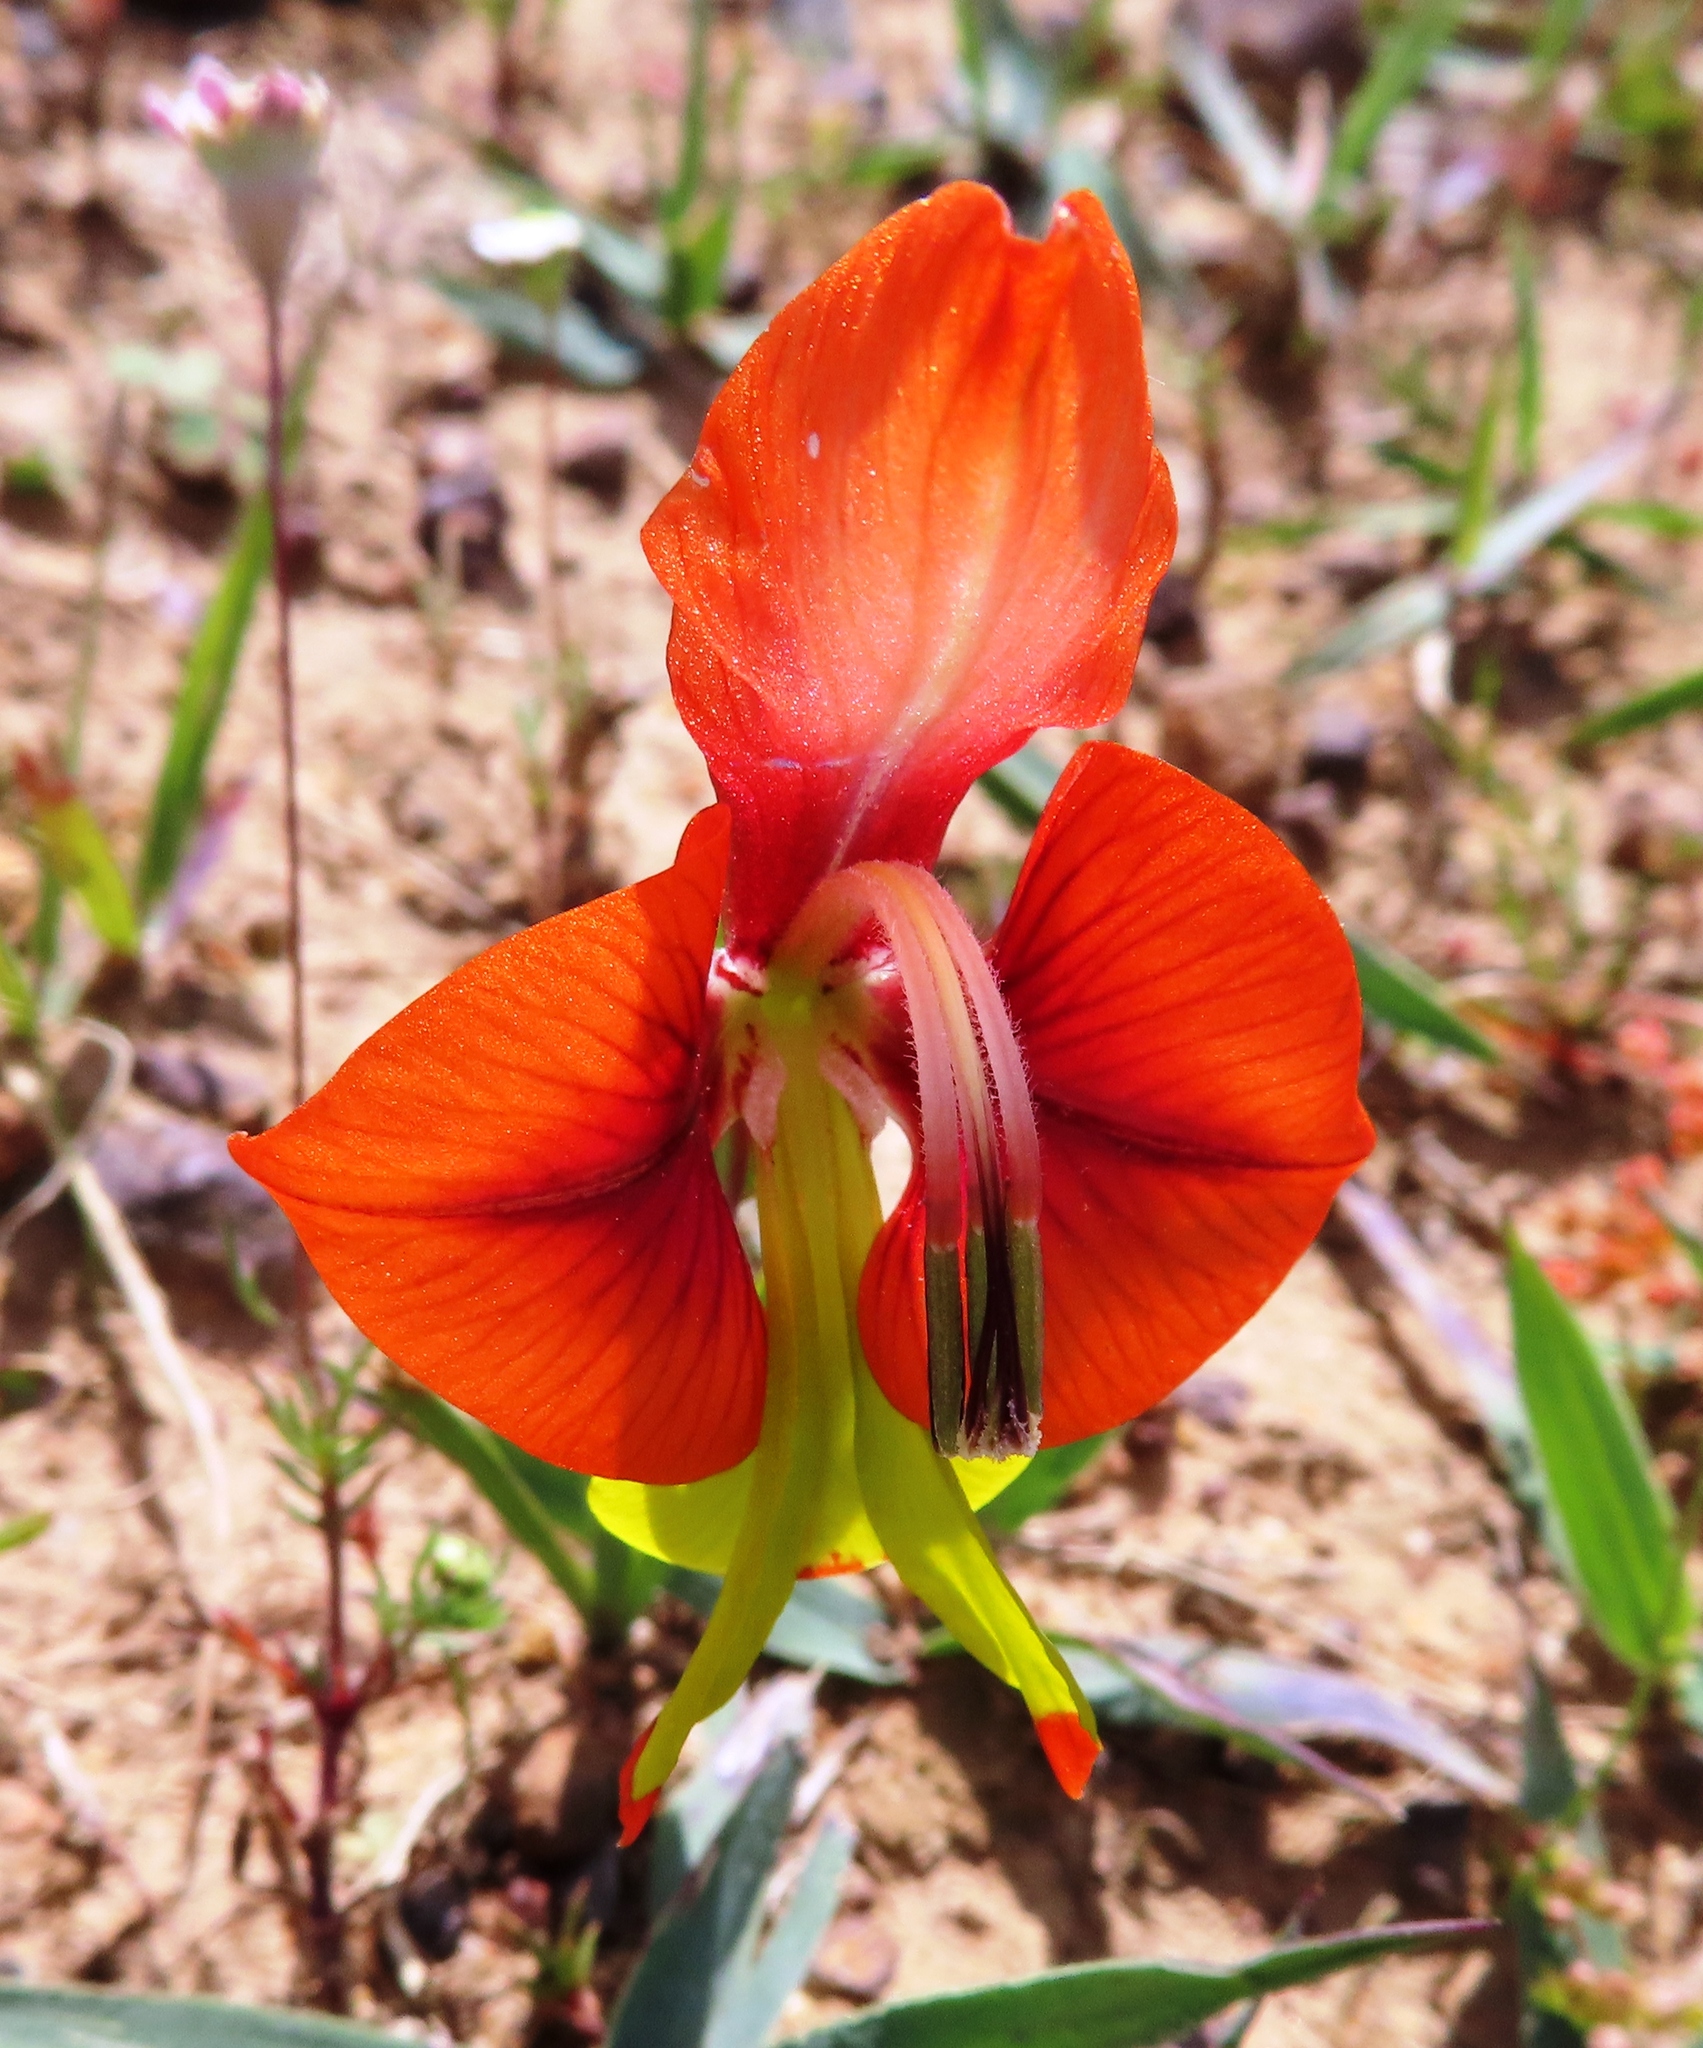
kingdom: Plantae
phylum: Tracheophyta
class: Liliopsida
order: Asparagales
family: Iridaceae
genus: Gladiolus
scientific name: Gladiolus alatus
